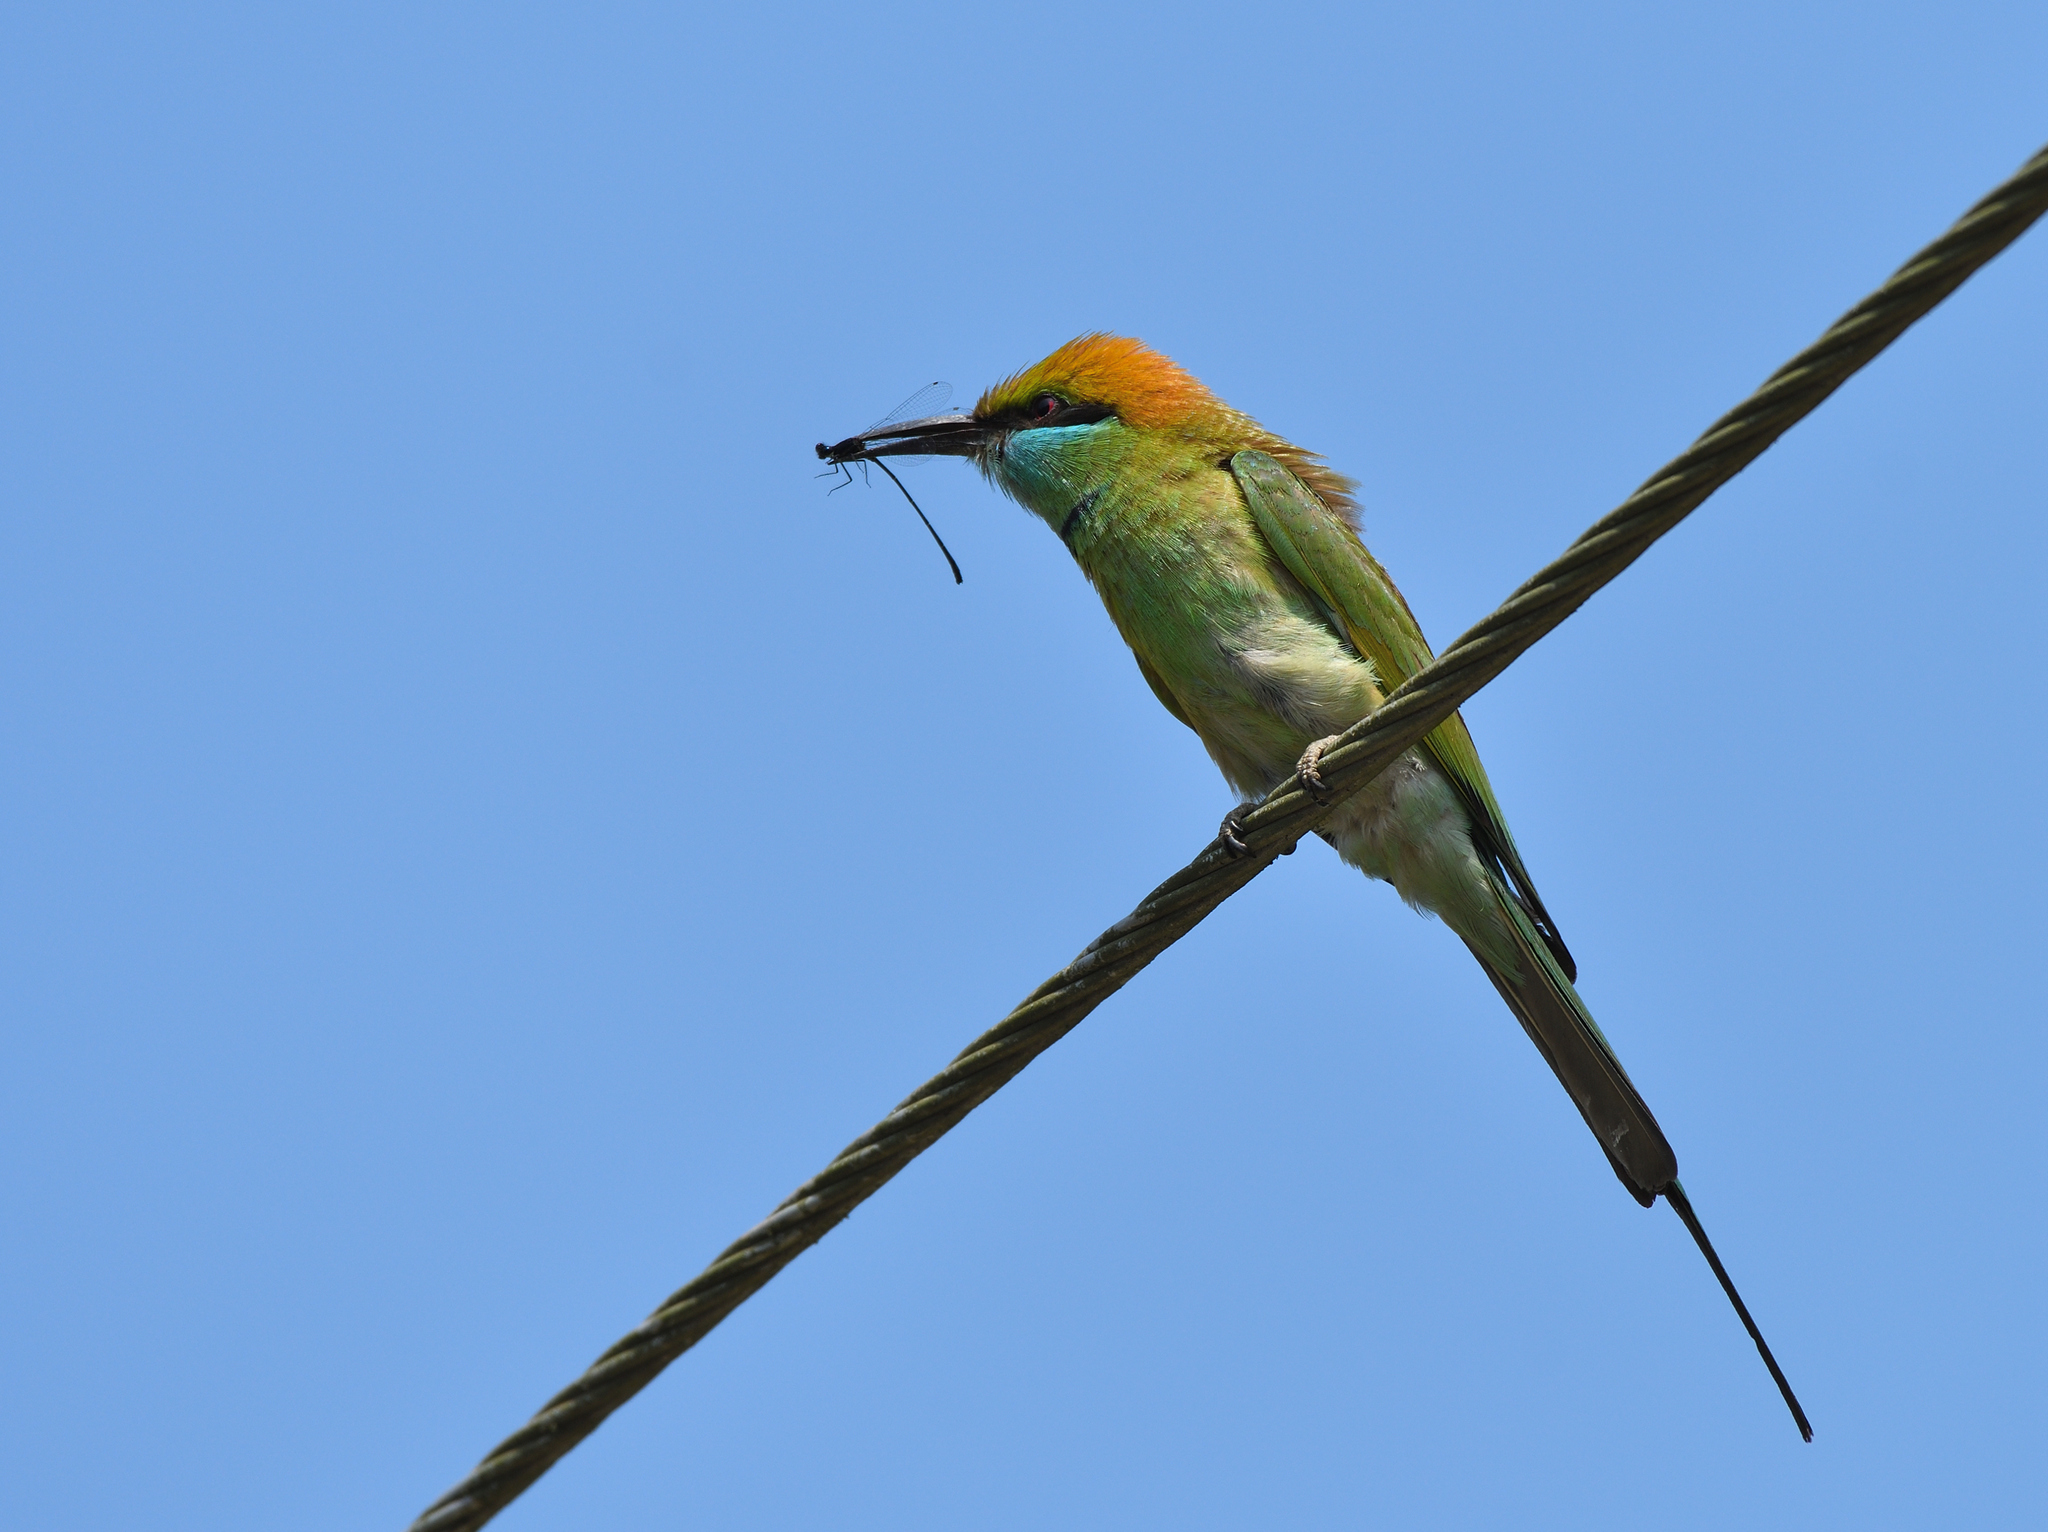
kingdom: Animalia
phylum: Chordata
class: Aves
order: Coraciiformes
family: Meropidae
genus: Merops
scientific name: Merops orientalis
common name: Green bee-eater
